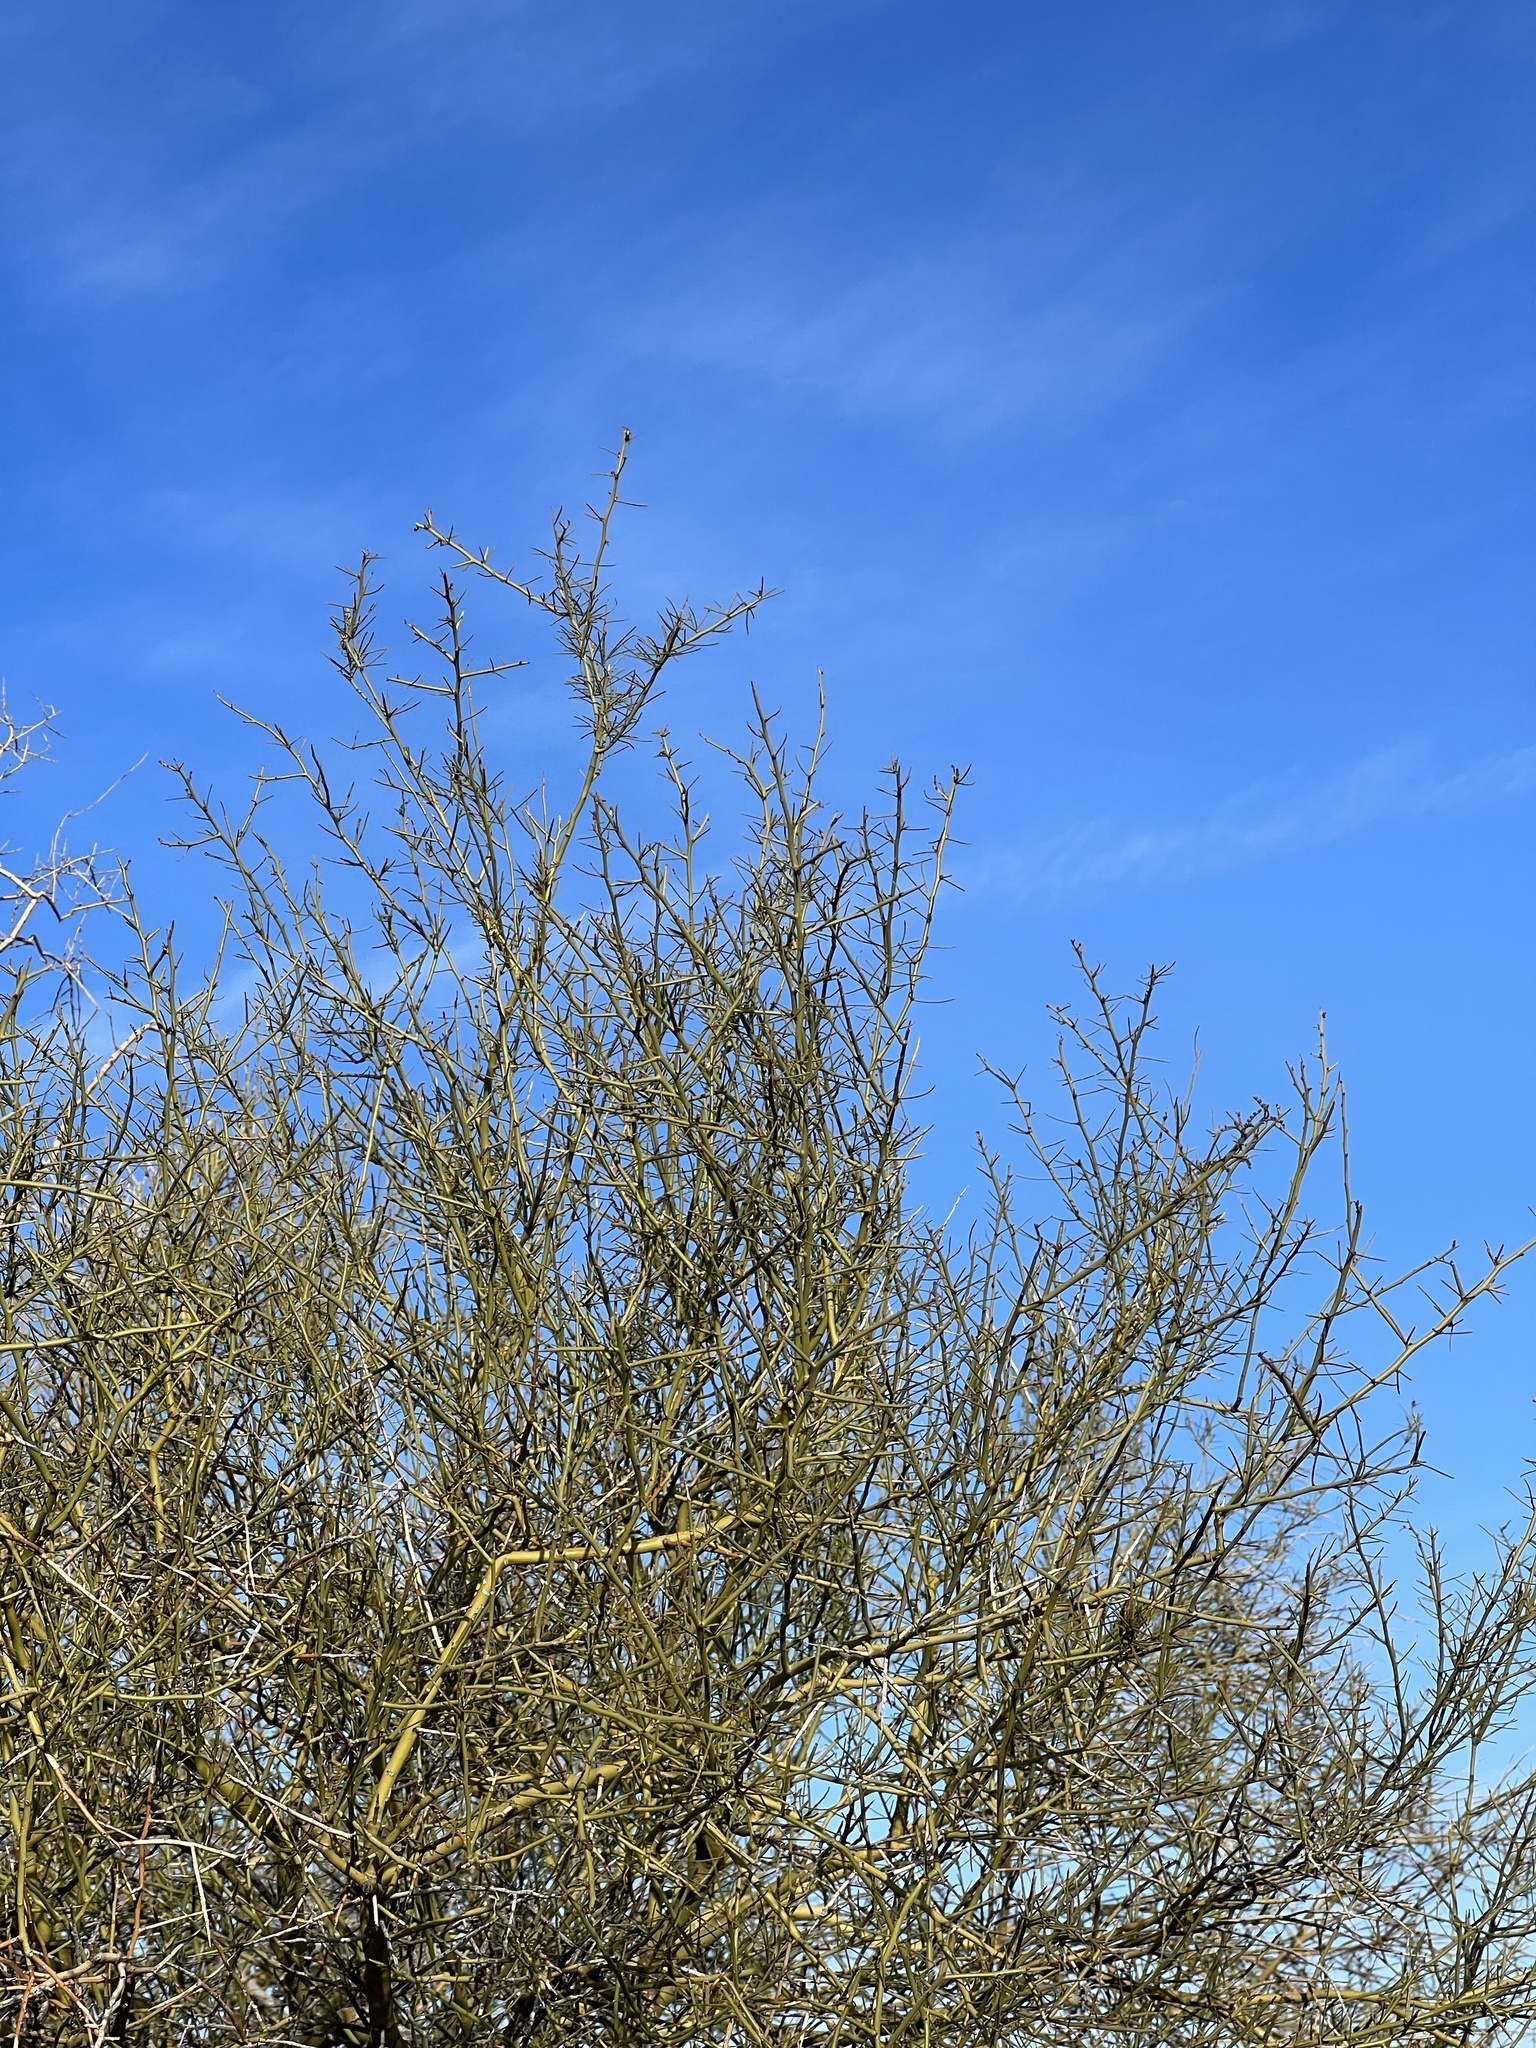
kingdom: Plantae
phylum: Tracheophyta
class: Magnoliopsida
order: Fabales
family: Fabaceae
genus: Parkinsonia
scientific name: Parkinsonia microphylla
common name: Yellow paloverde
